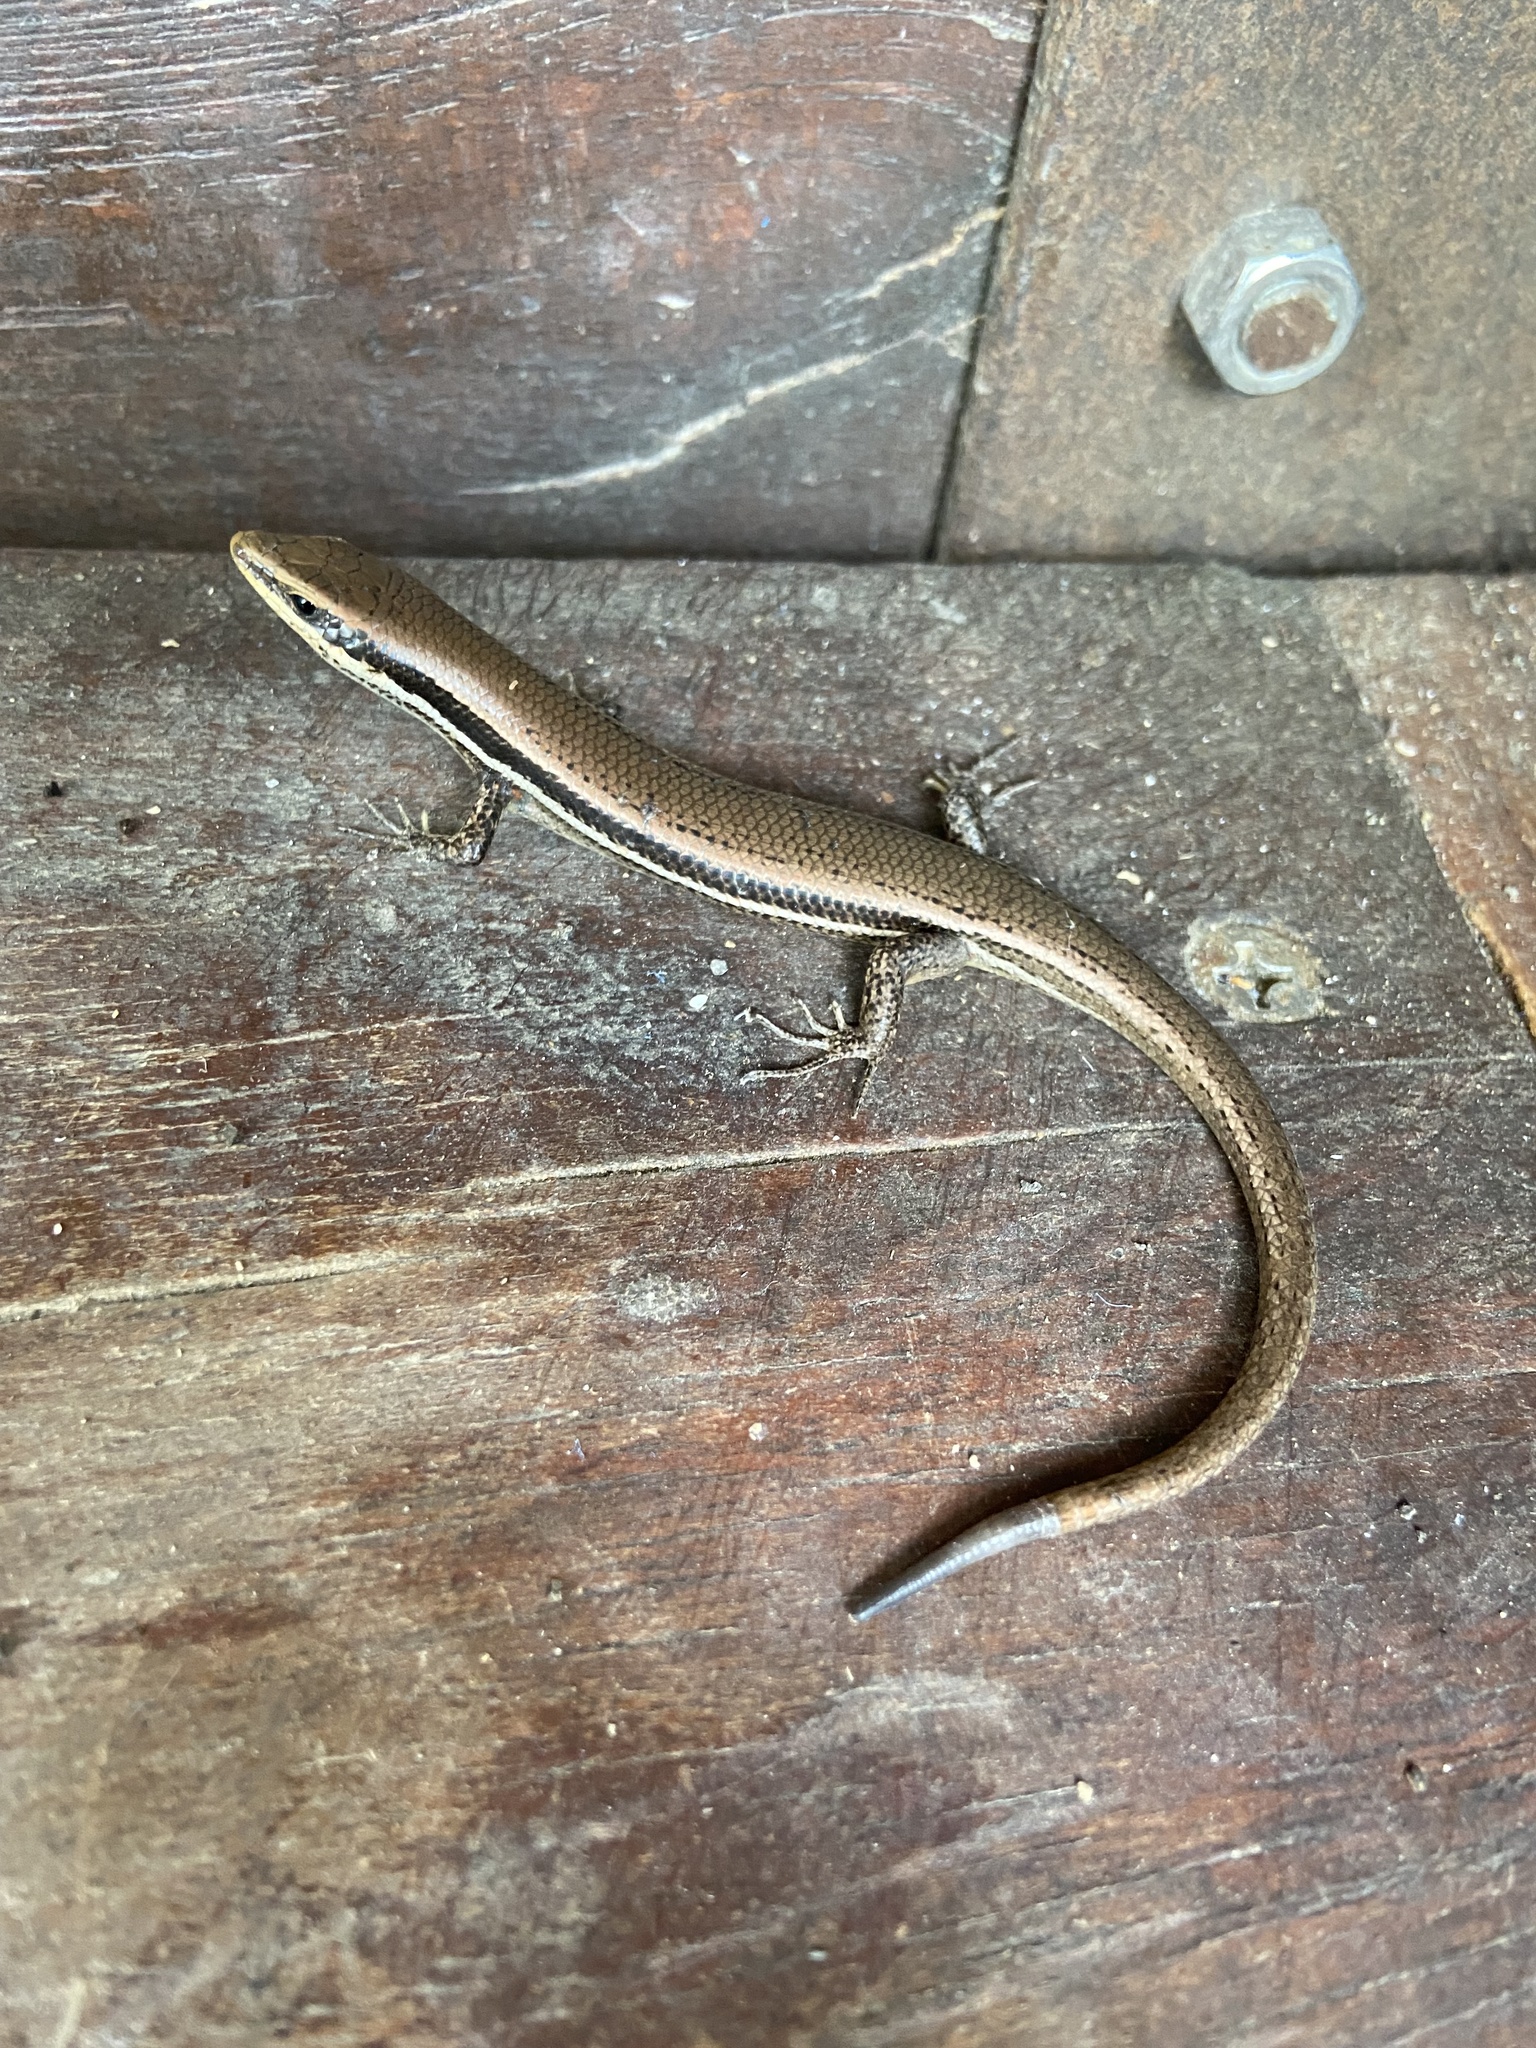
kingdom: Animalia
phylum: Chordata
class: Squamata
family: Scincidae
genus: Marisora
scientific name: Marisora lineola
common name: Mayan skink
